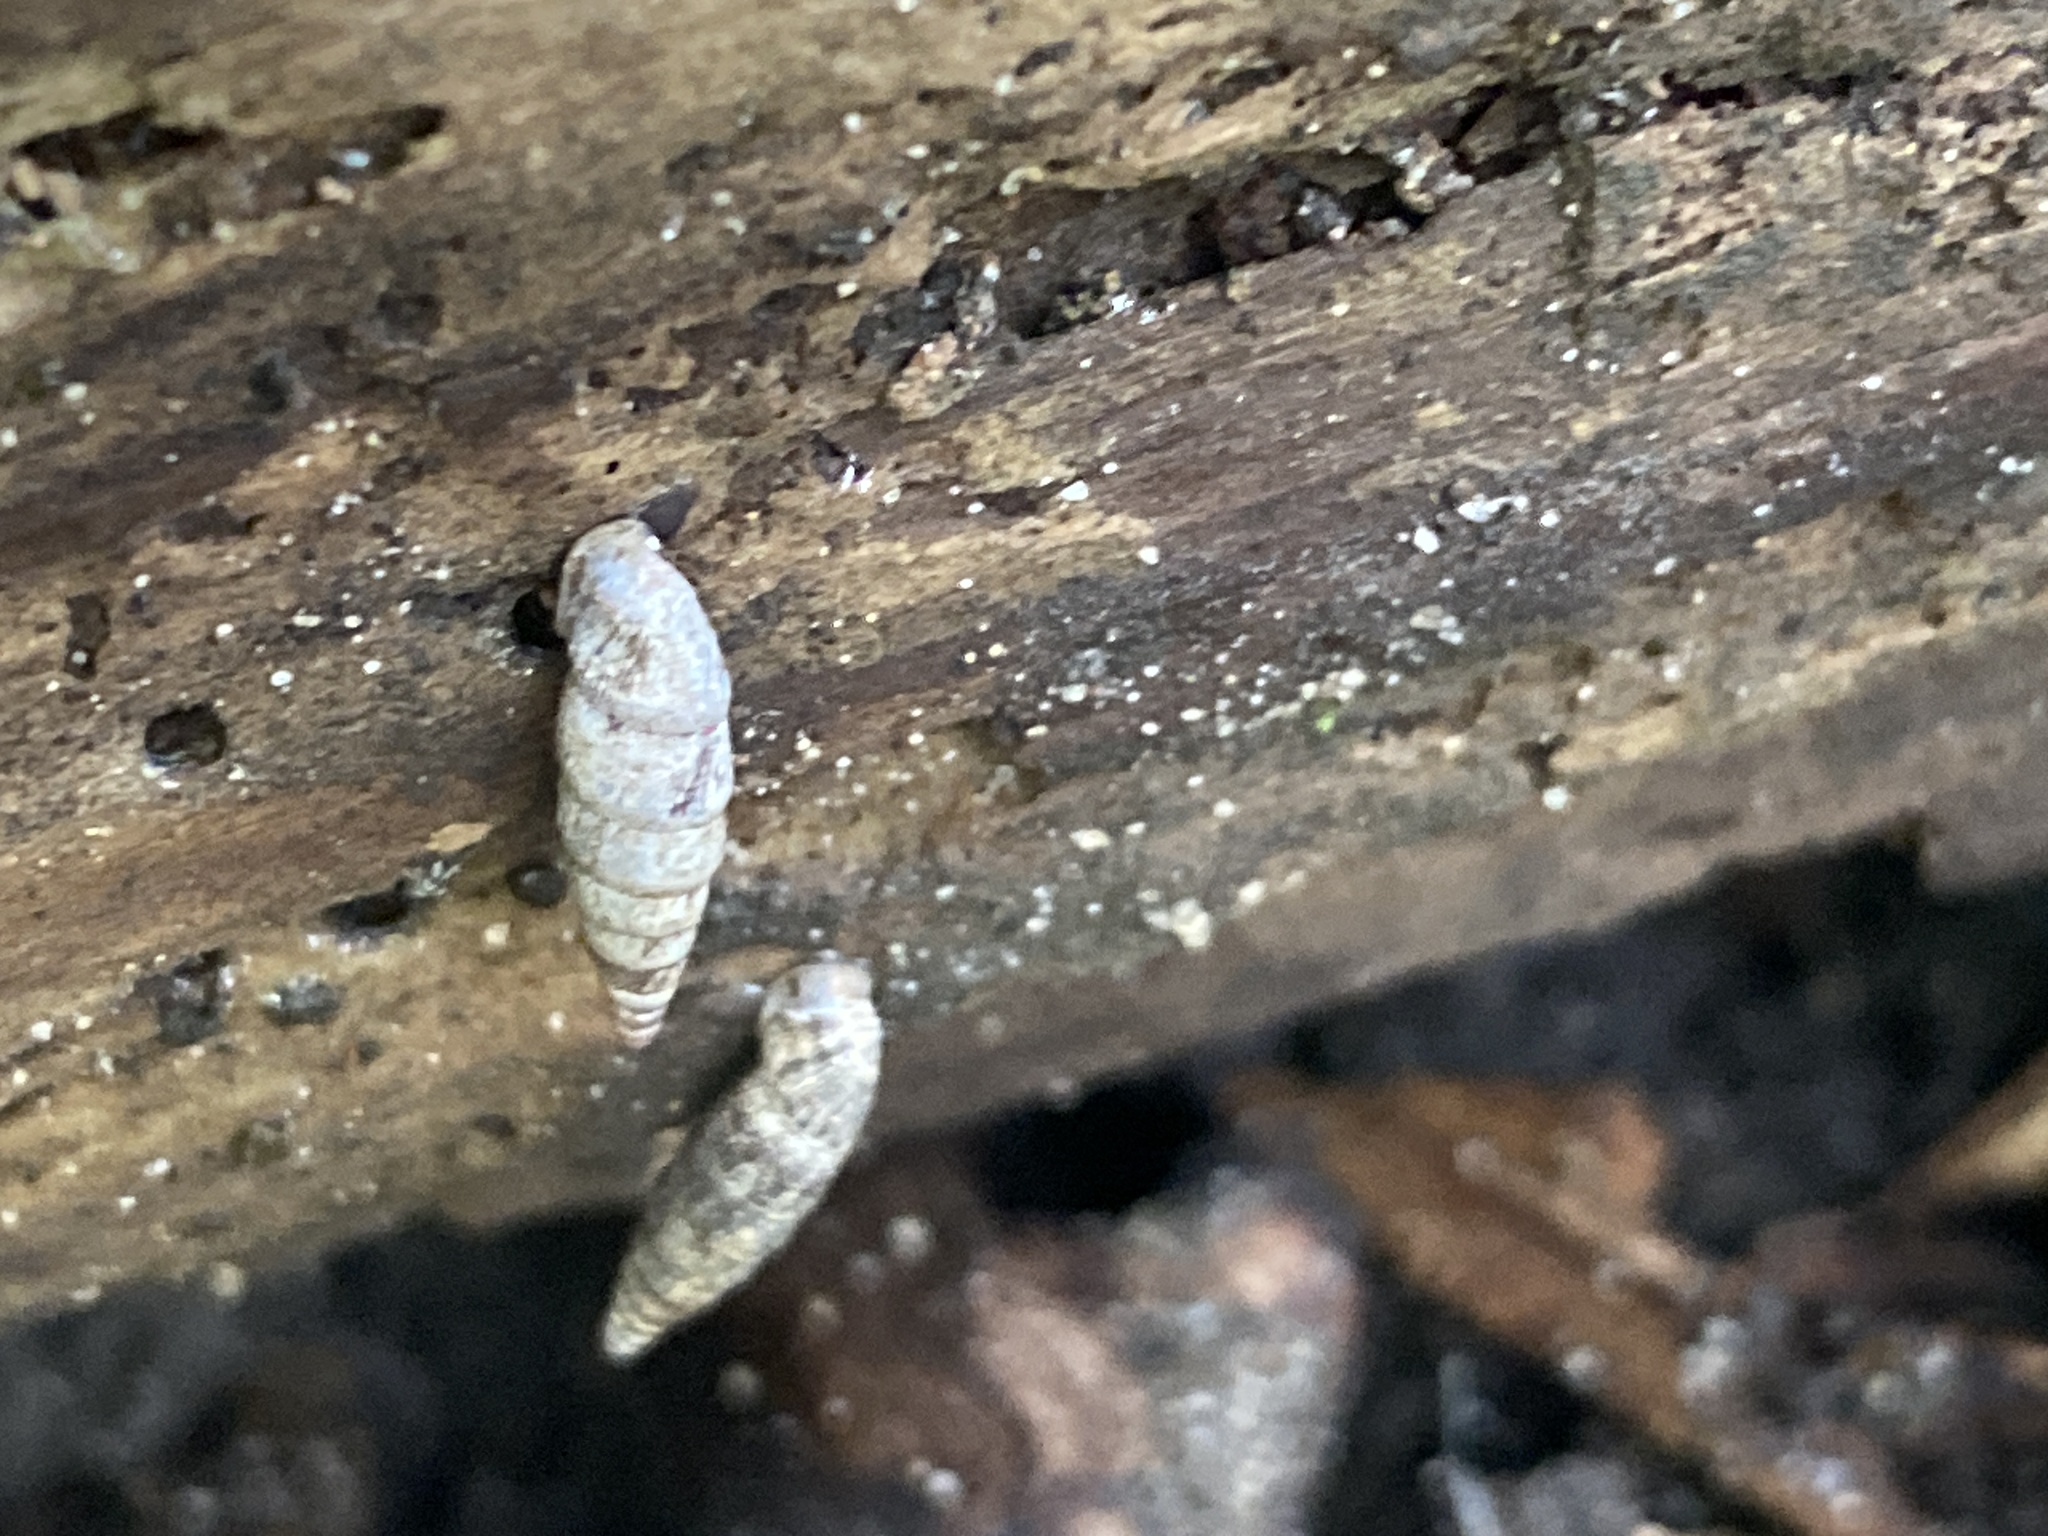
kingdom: Animalia
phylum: Mollusca
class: Gastropoda
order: Stylommatophora
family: Clausiliidae
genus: Clausilia
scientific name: Clausilia bidentata
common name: Two-toothed door snail
